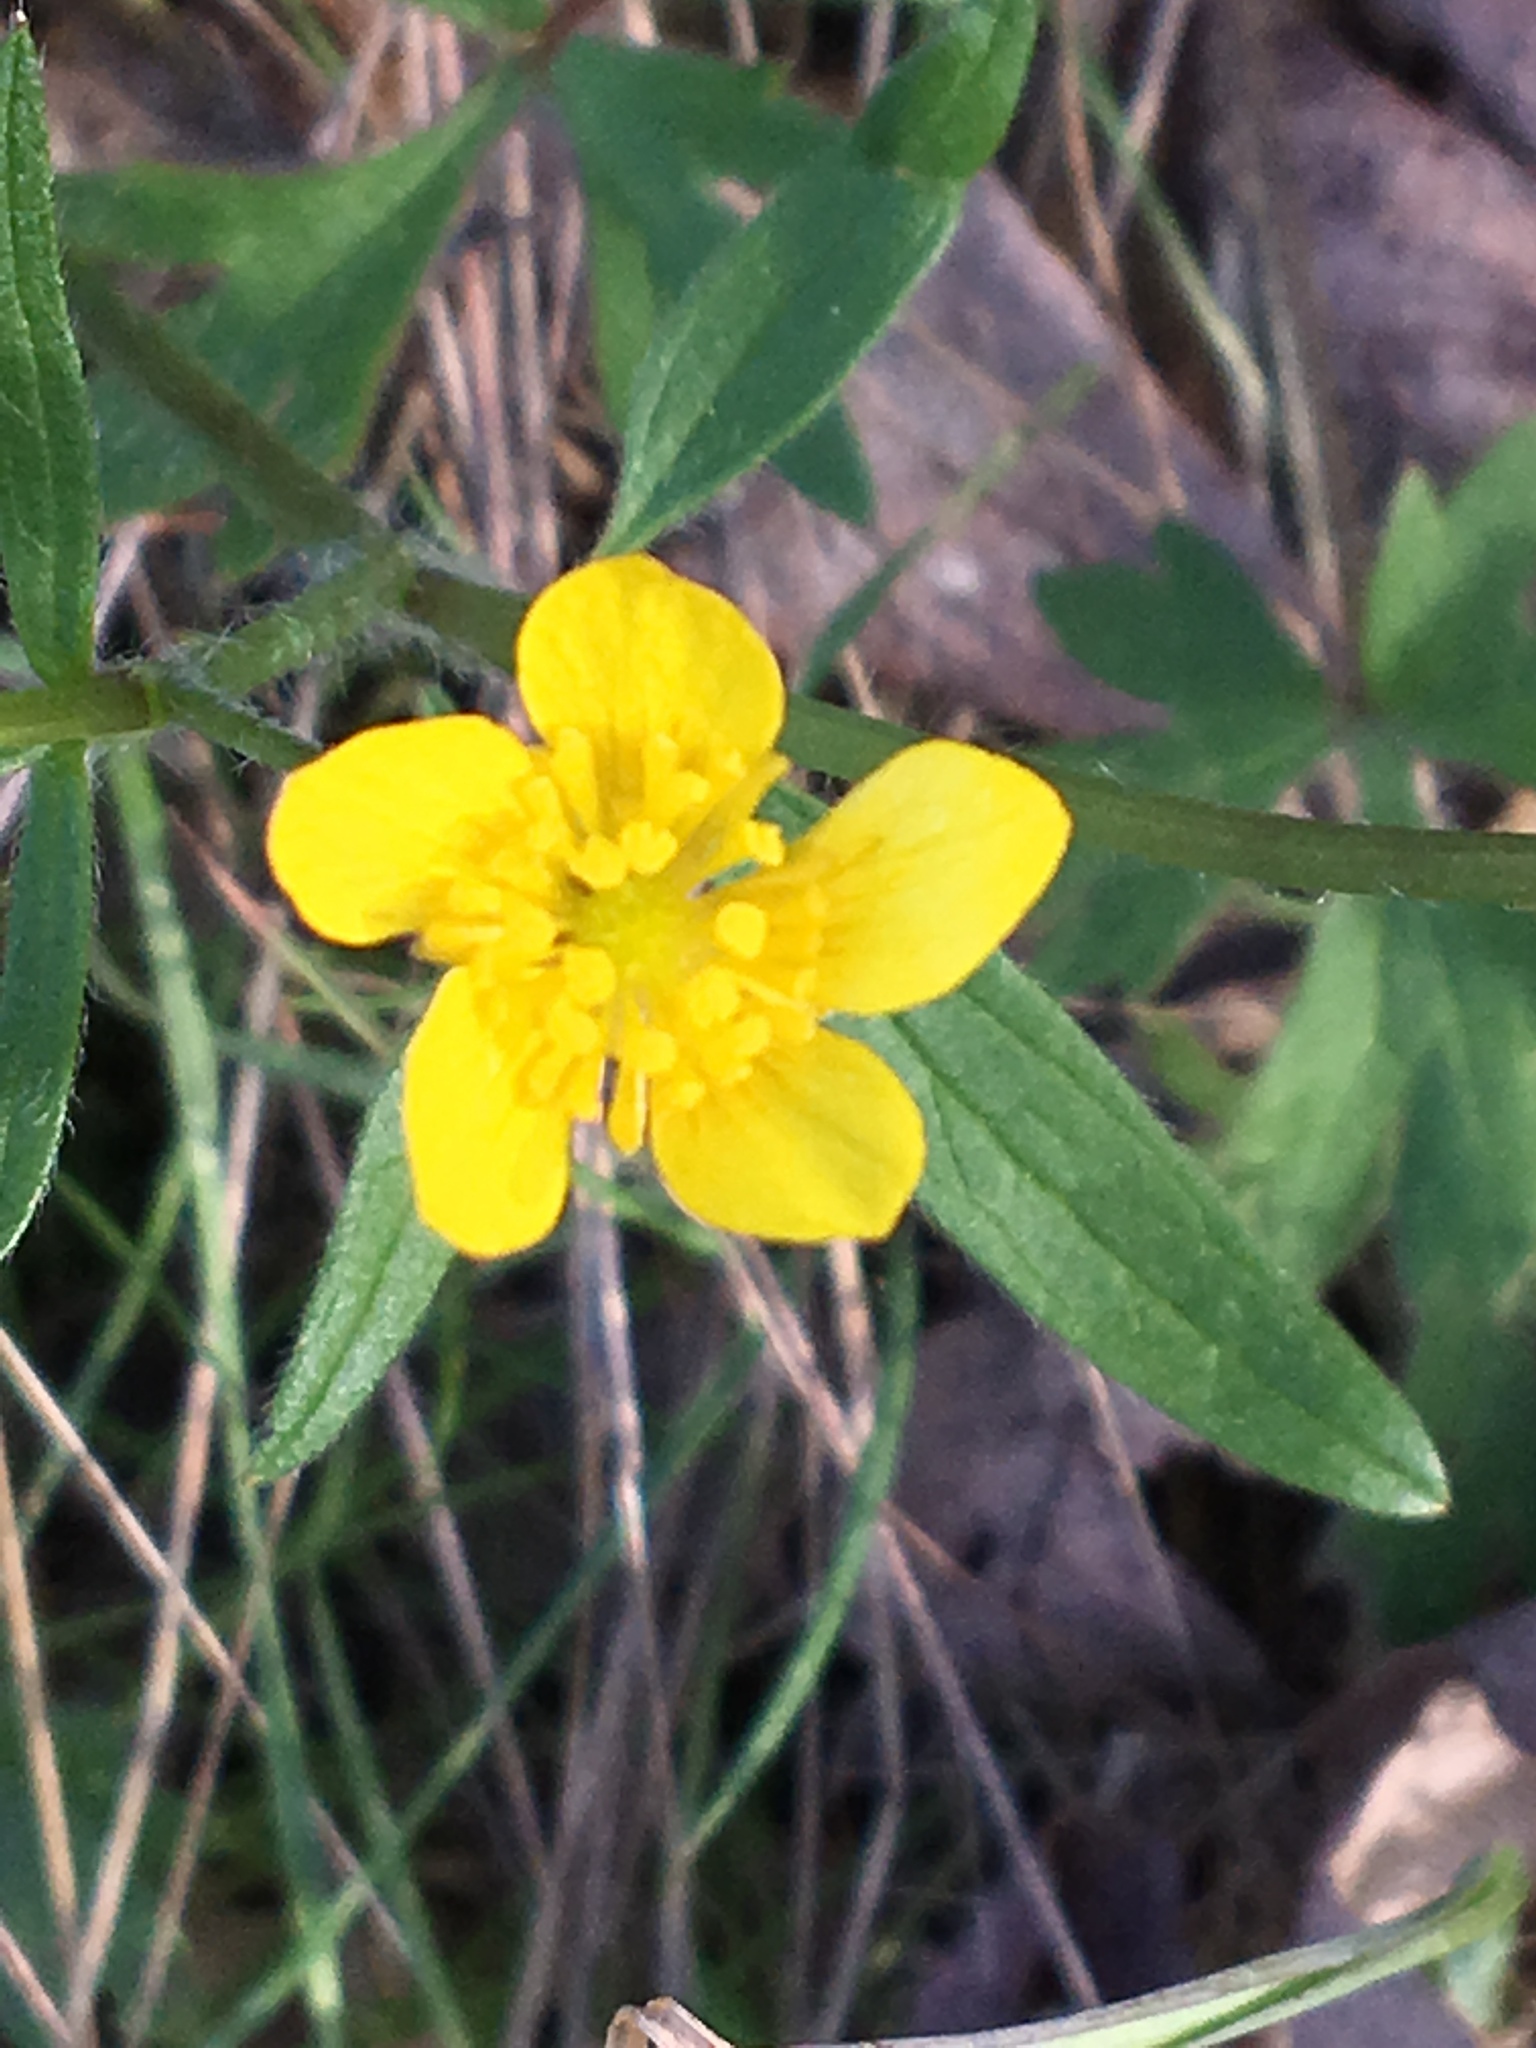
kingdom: Plantae
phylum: Tracheophyta
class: Magnoliopsida
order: Ranunculales
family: Ranunculaceae
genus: Ranunculus
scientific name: Ranunculus occidentalis
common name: Western buttercup
